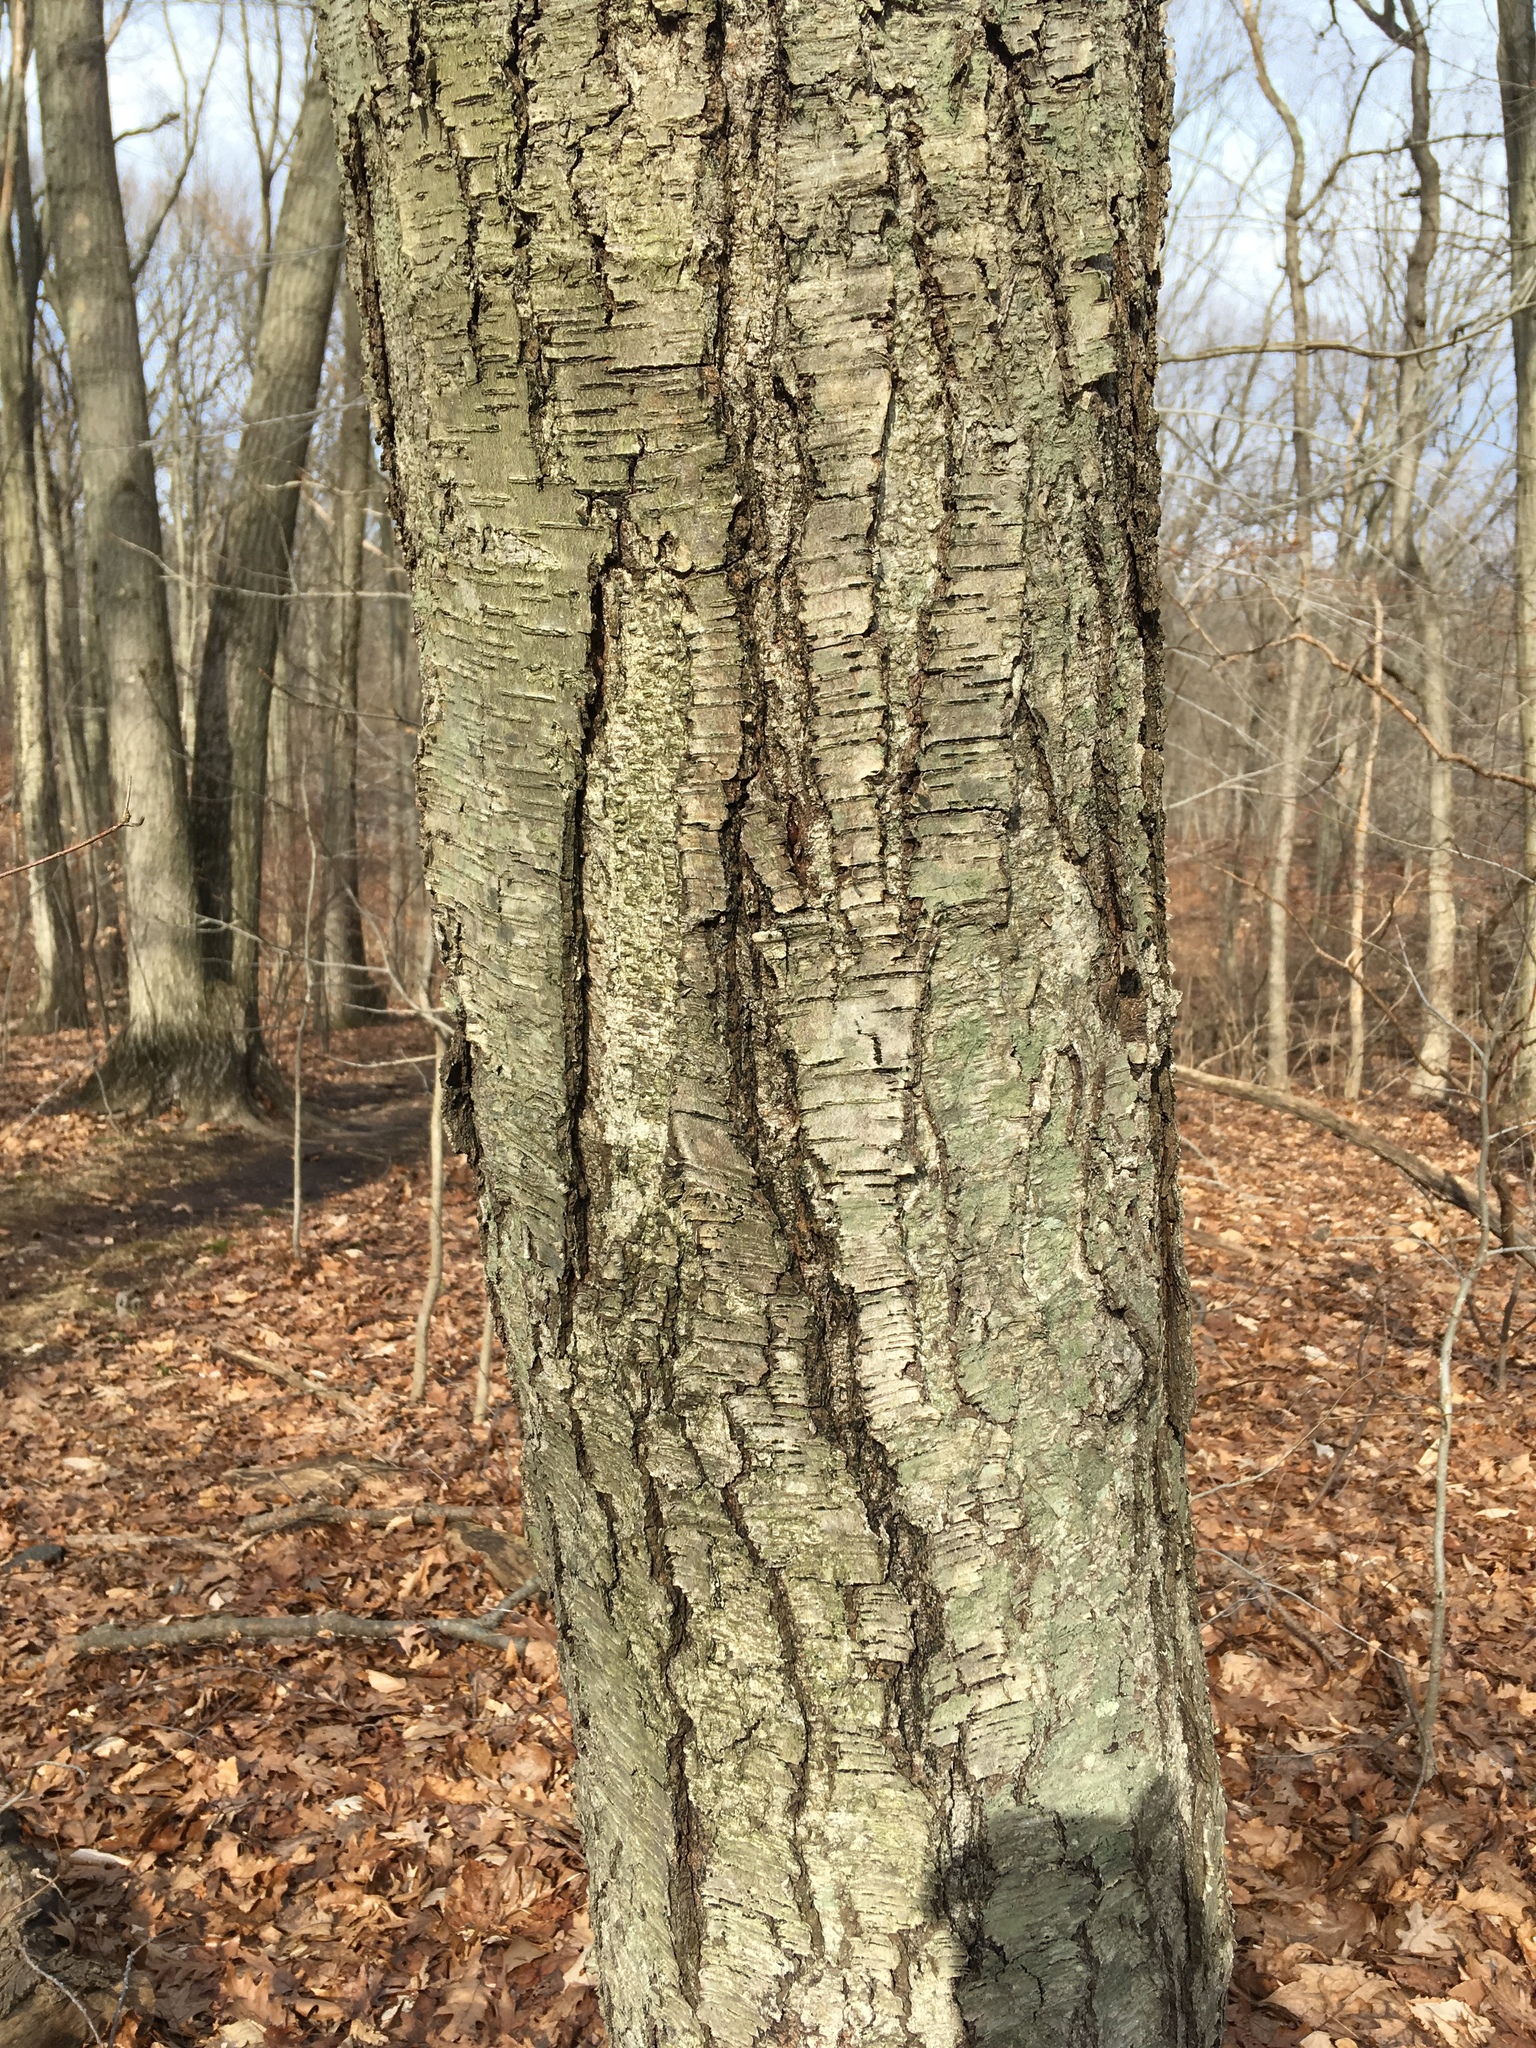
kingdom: Plantae
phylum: Tracheophyta
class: Magnoliopsida
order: Fagales
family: Betulaceae
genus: Betula
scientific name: Betula lenta
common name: Black birch
